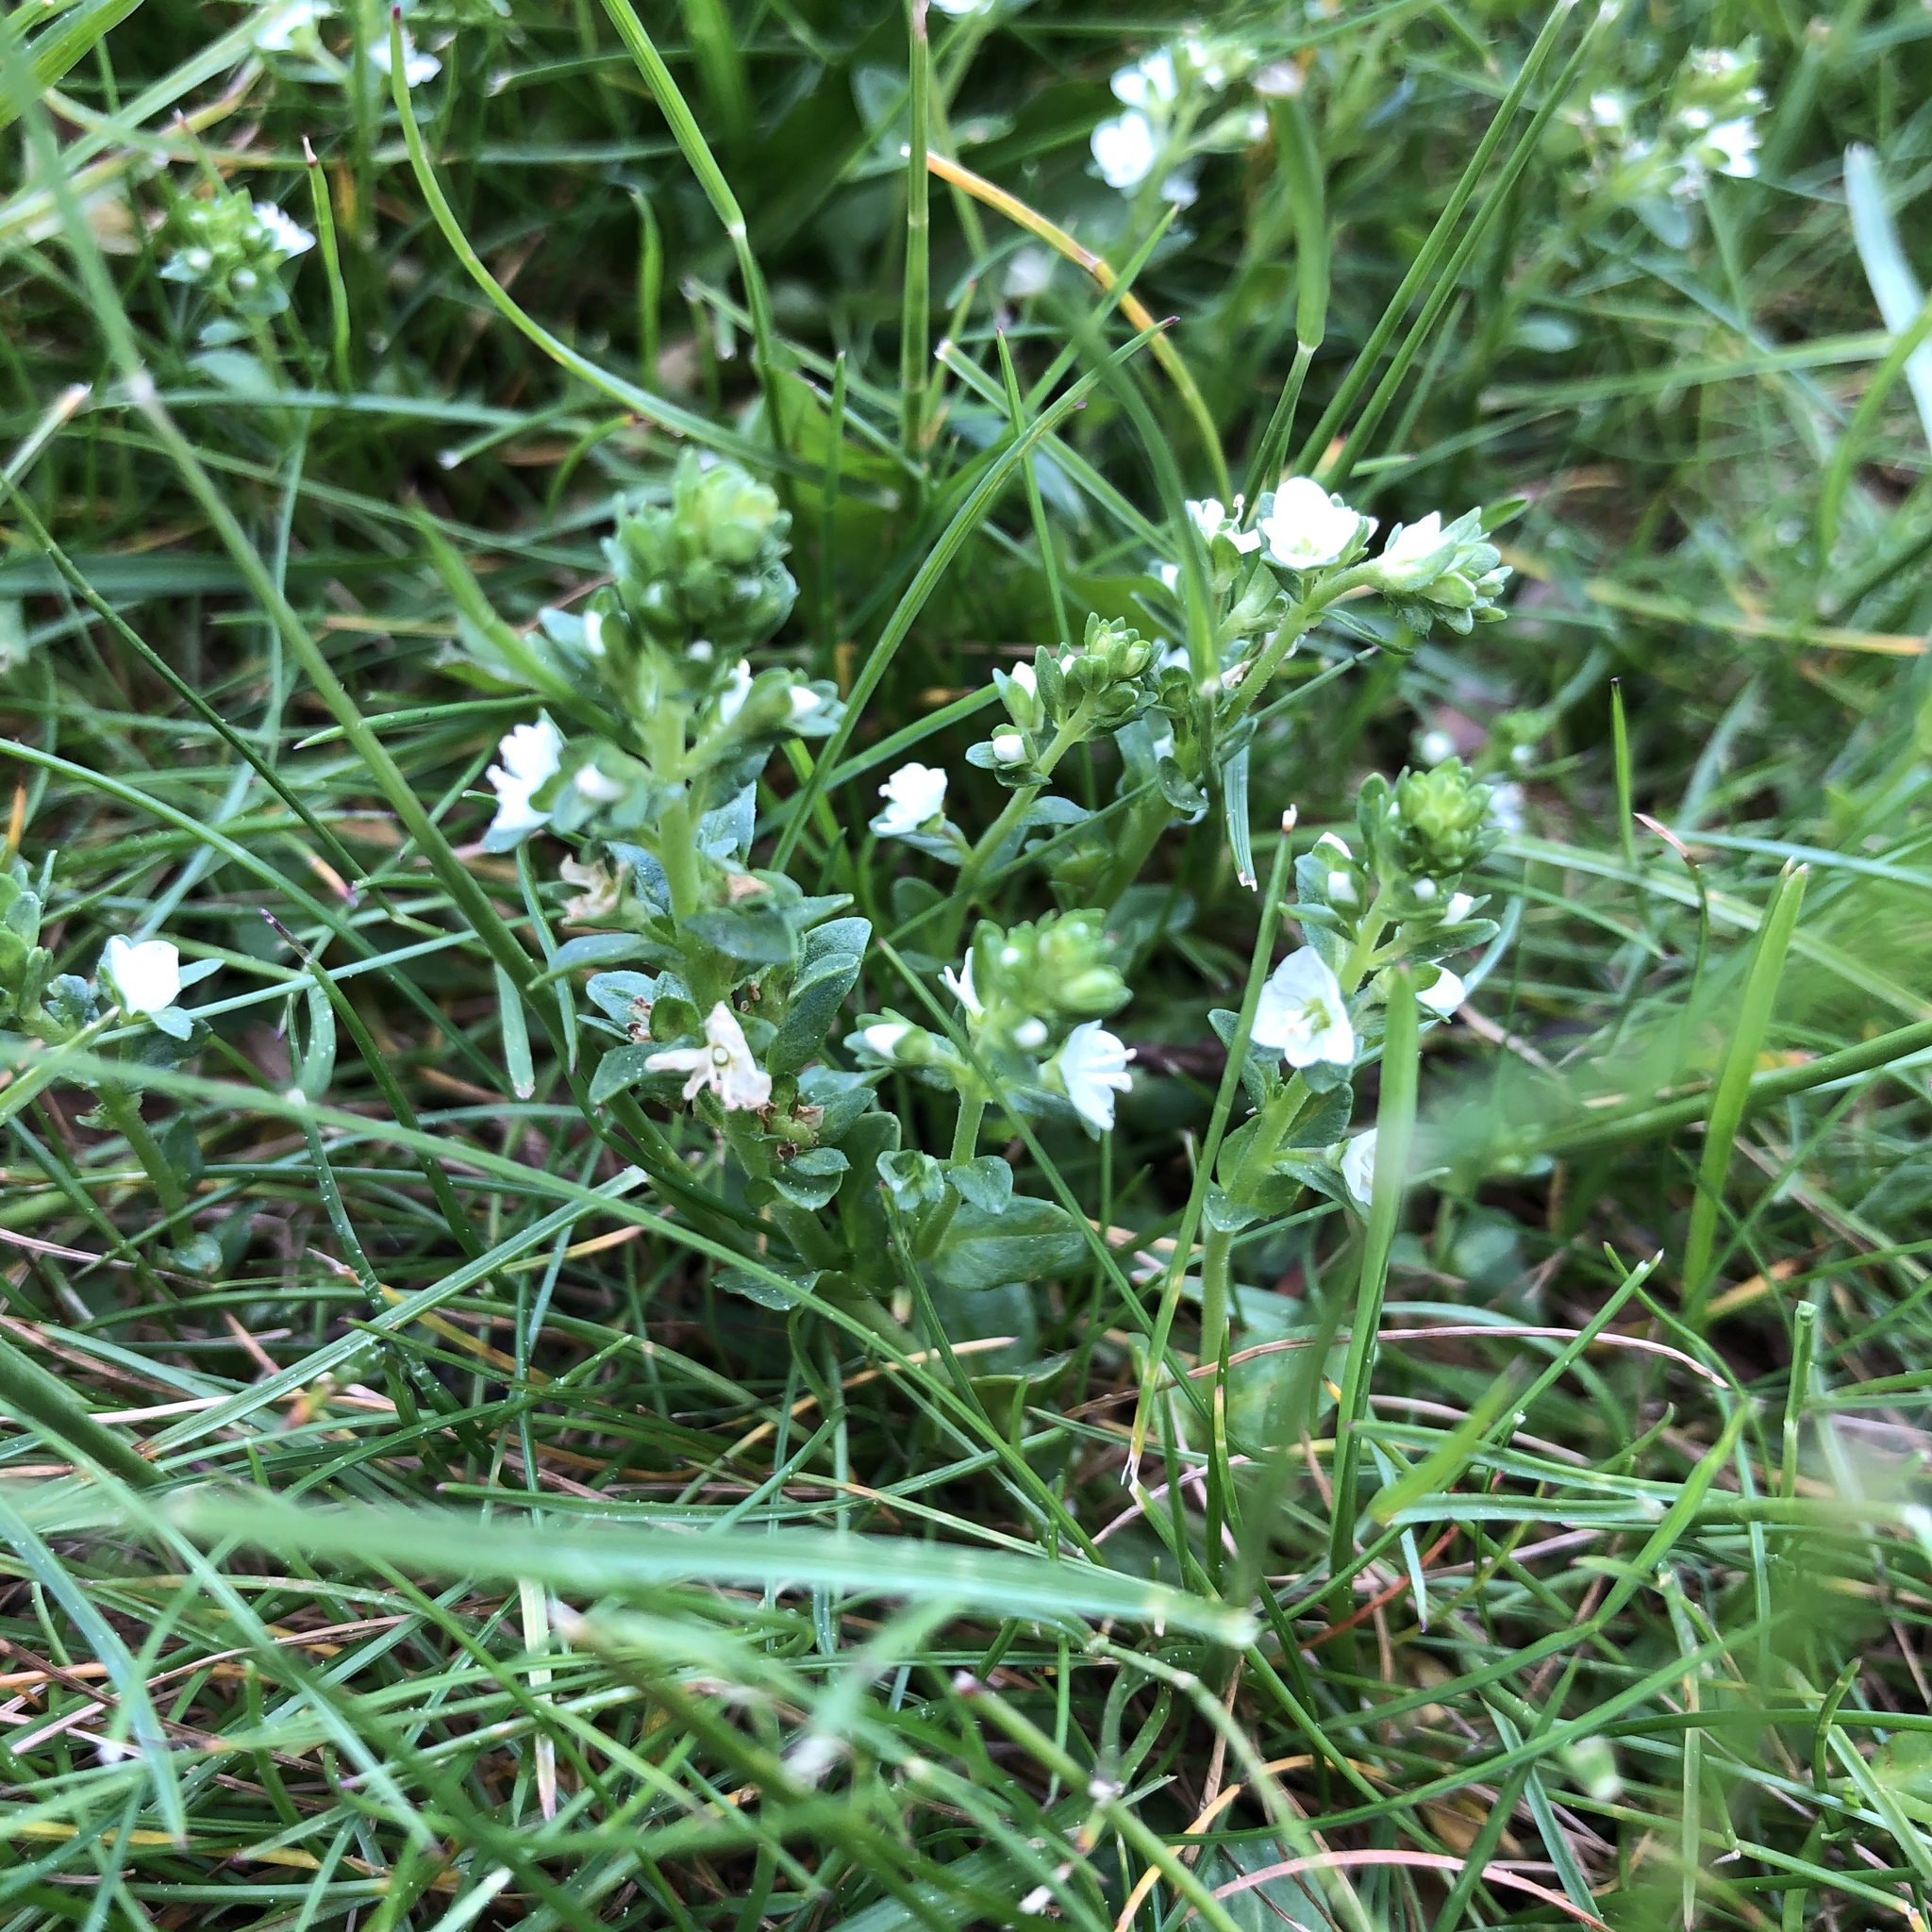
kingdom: Plantae
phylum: Tracheophyta
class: Magnoliopsida
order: Lamiales
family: Plantaginaceae
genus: Veronica
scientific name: Veronica serpyllifolia
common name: Thyme-leaved speedwell
